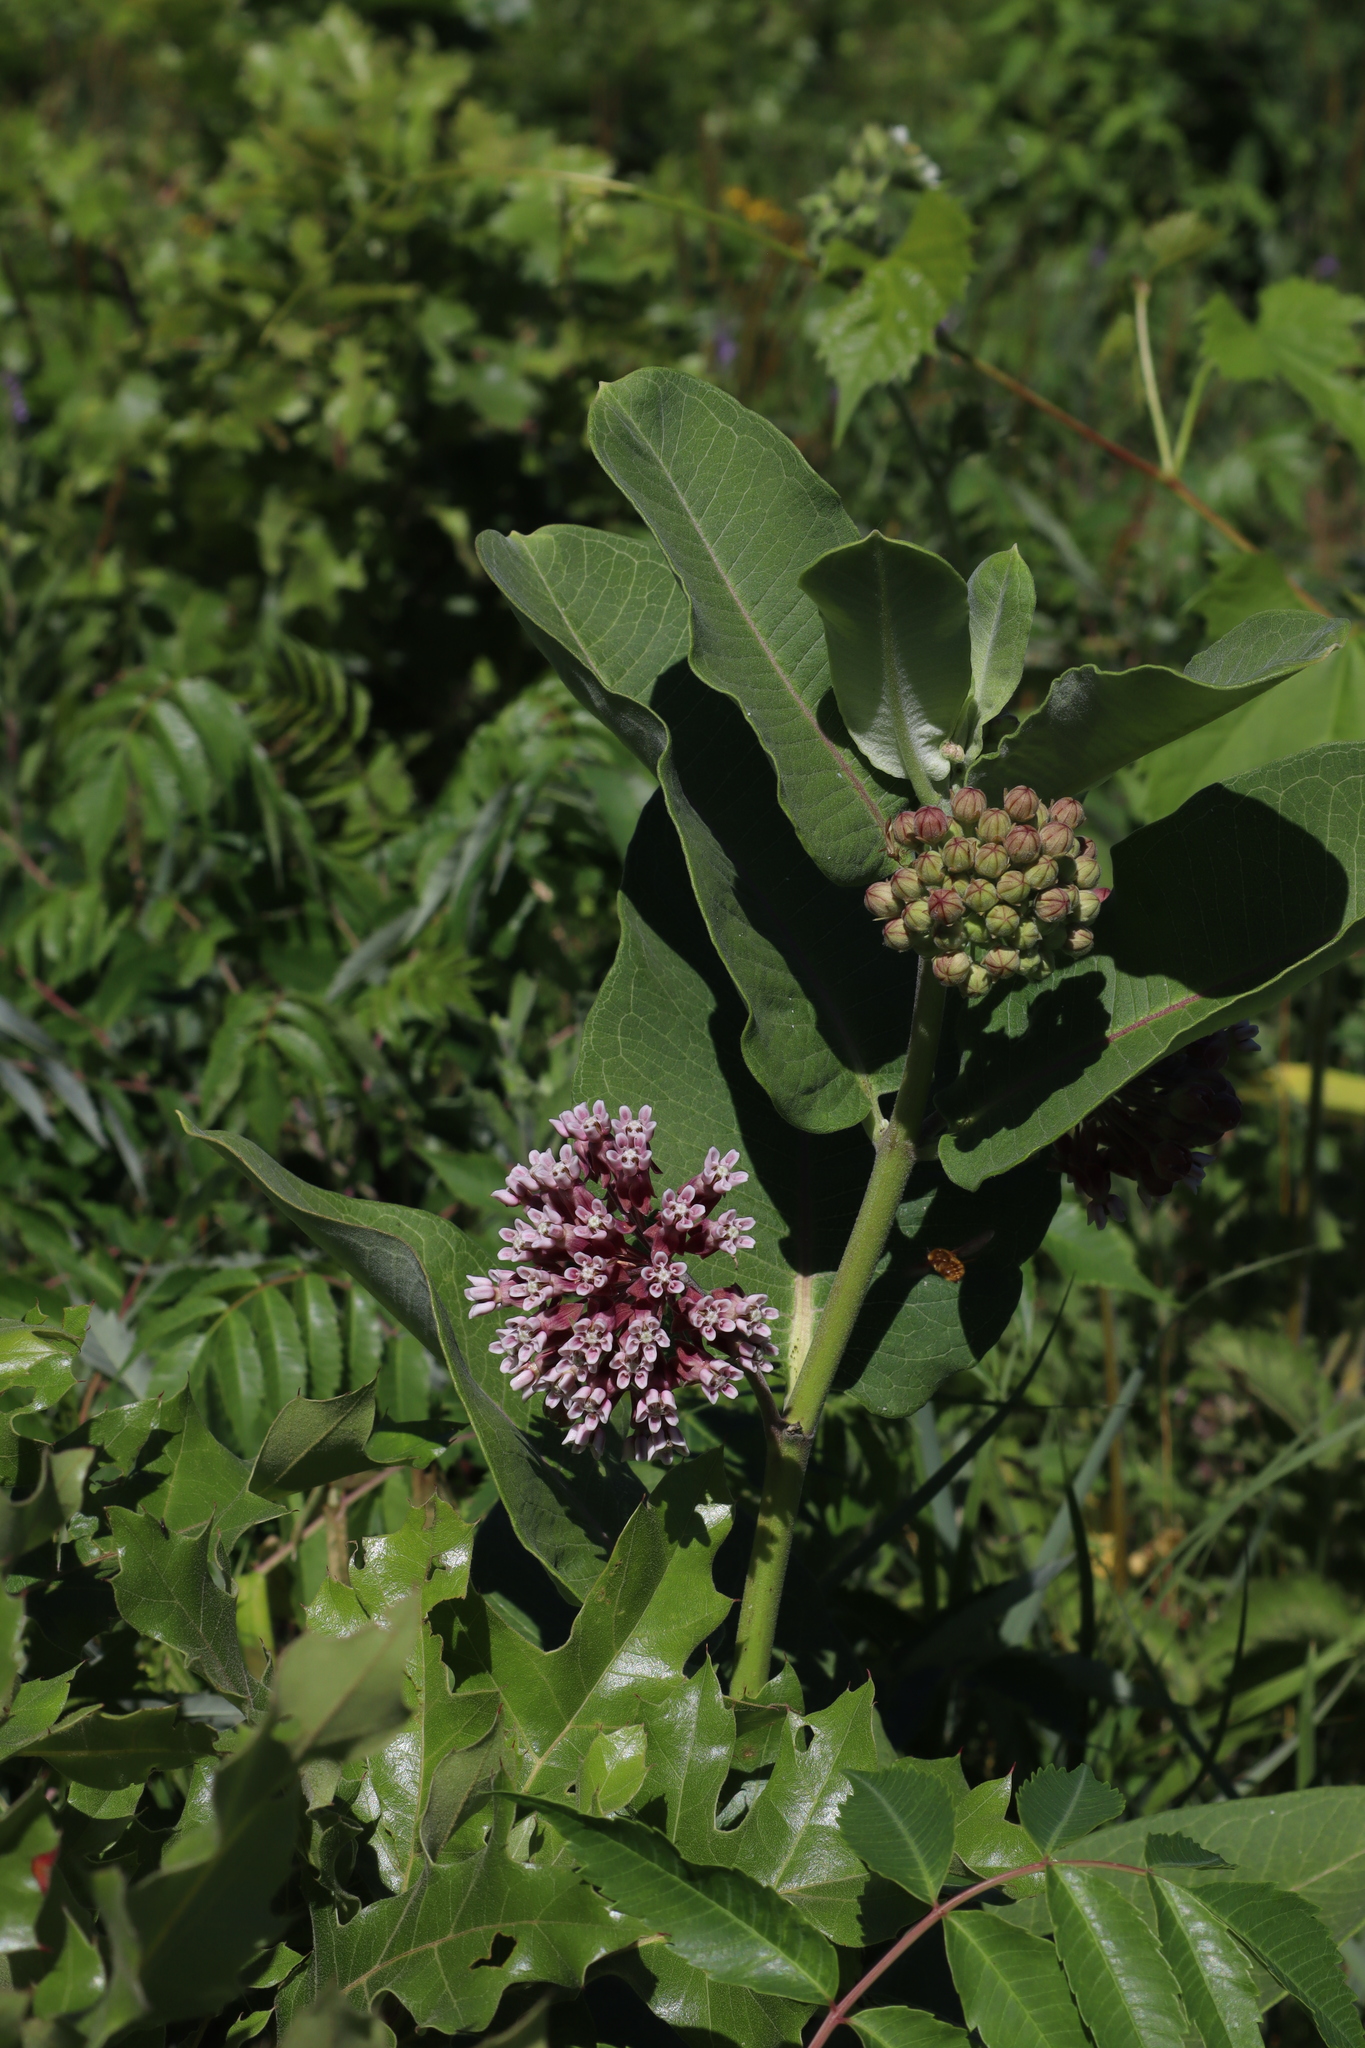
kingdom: Plantae
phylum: Tracheophyta
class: Magnoliopsida
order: Gentianales
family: Apocynaceae
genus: Asclepias
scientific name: Asclepias syriaca
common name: Common milkweed
